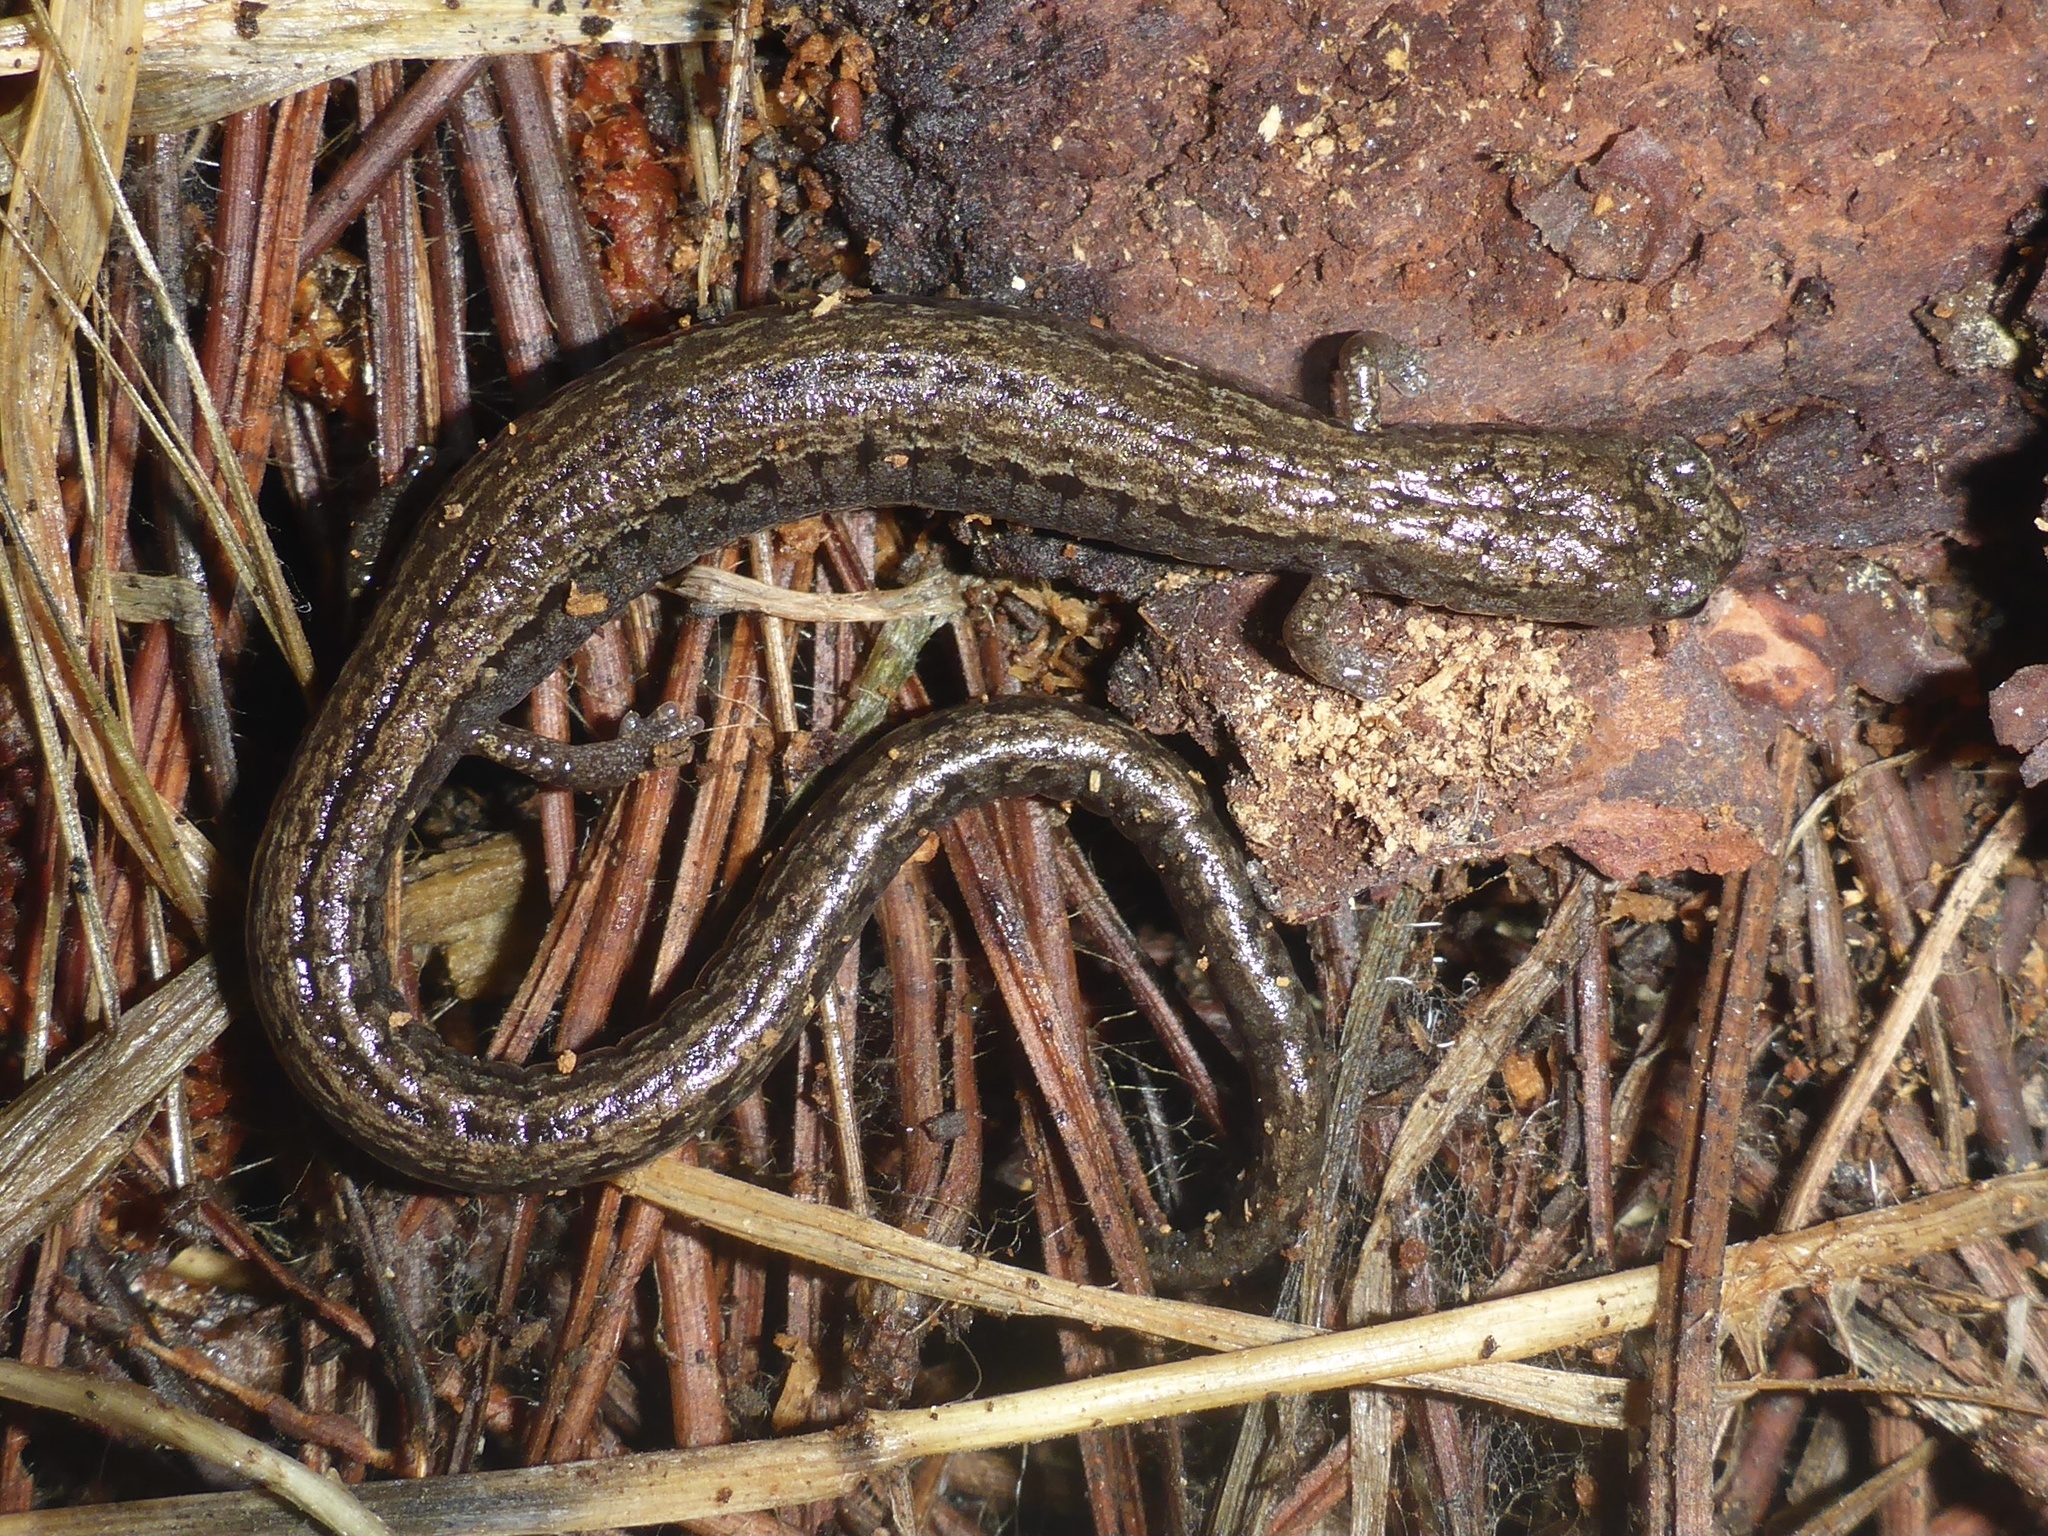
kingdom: Animalia
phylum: Chordata
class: Amphibia
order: Caudata
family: Plethodontidae
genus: Batrachoseps
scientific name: Batrachoseps attenuatus
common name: California slender salamander
